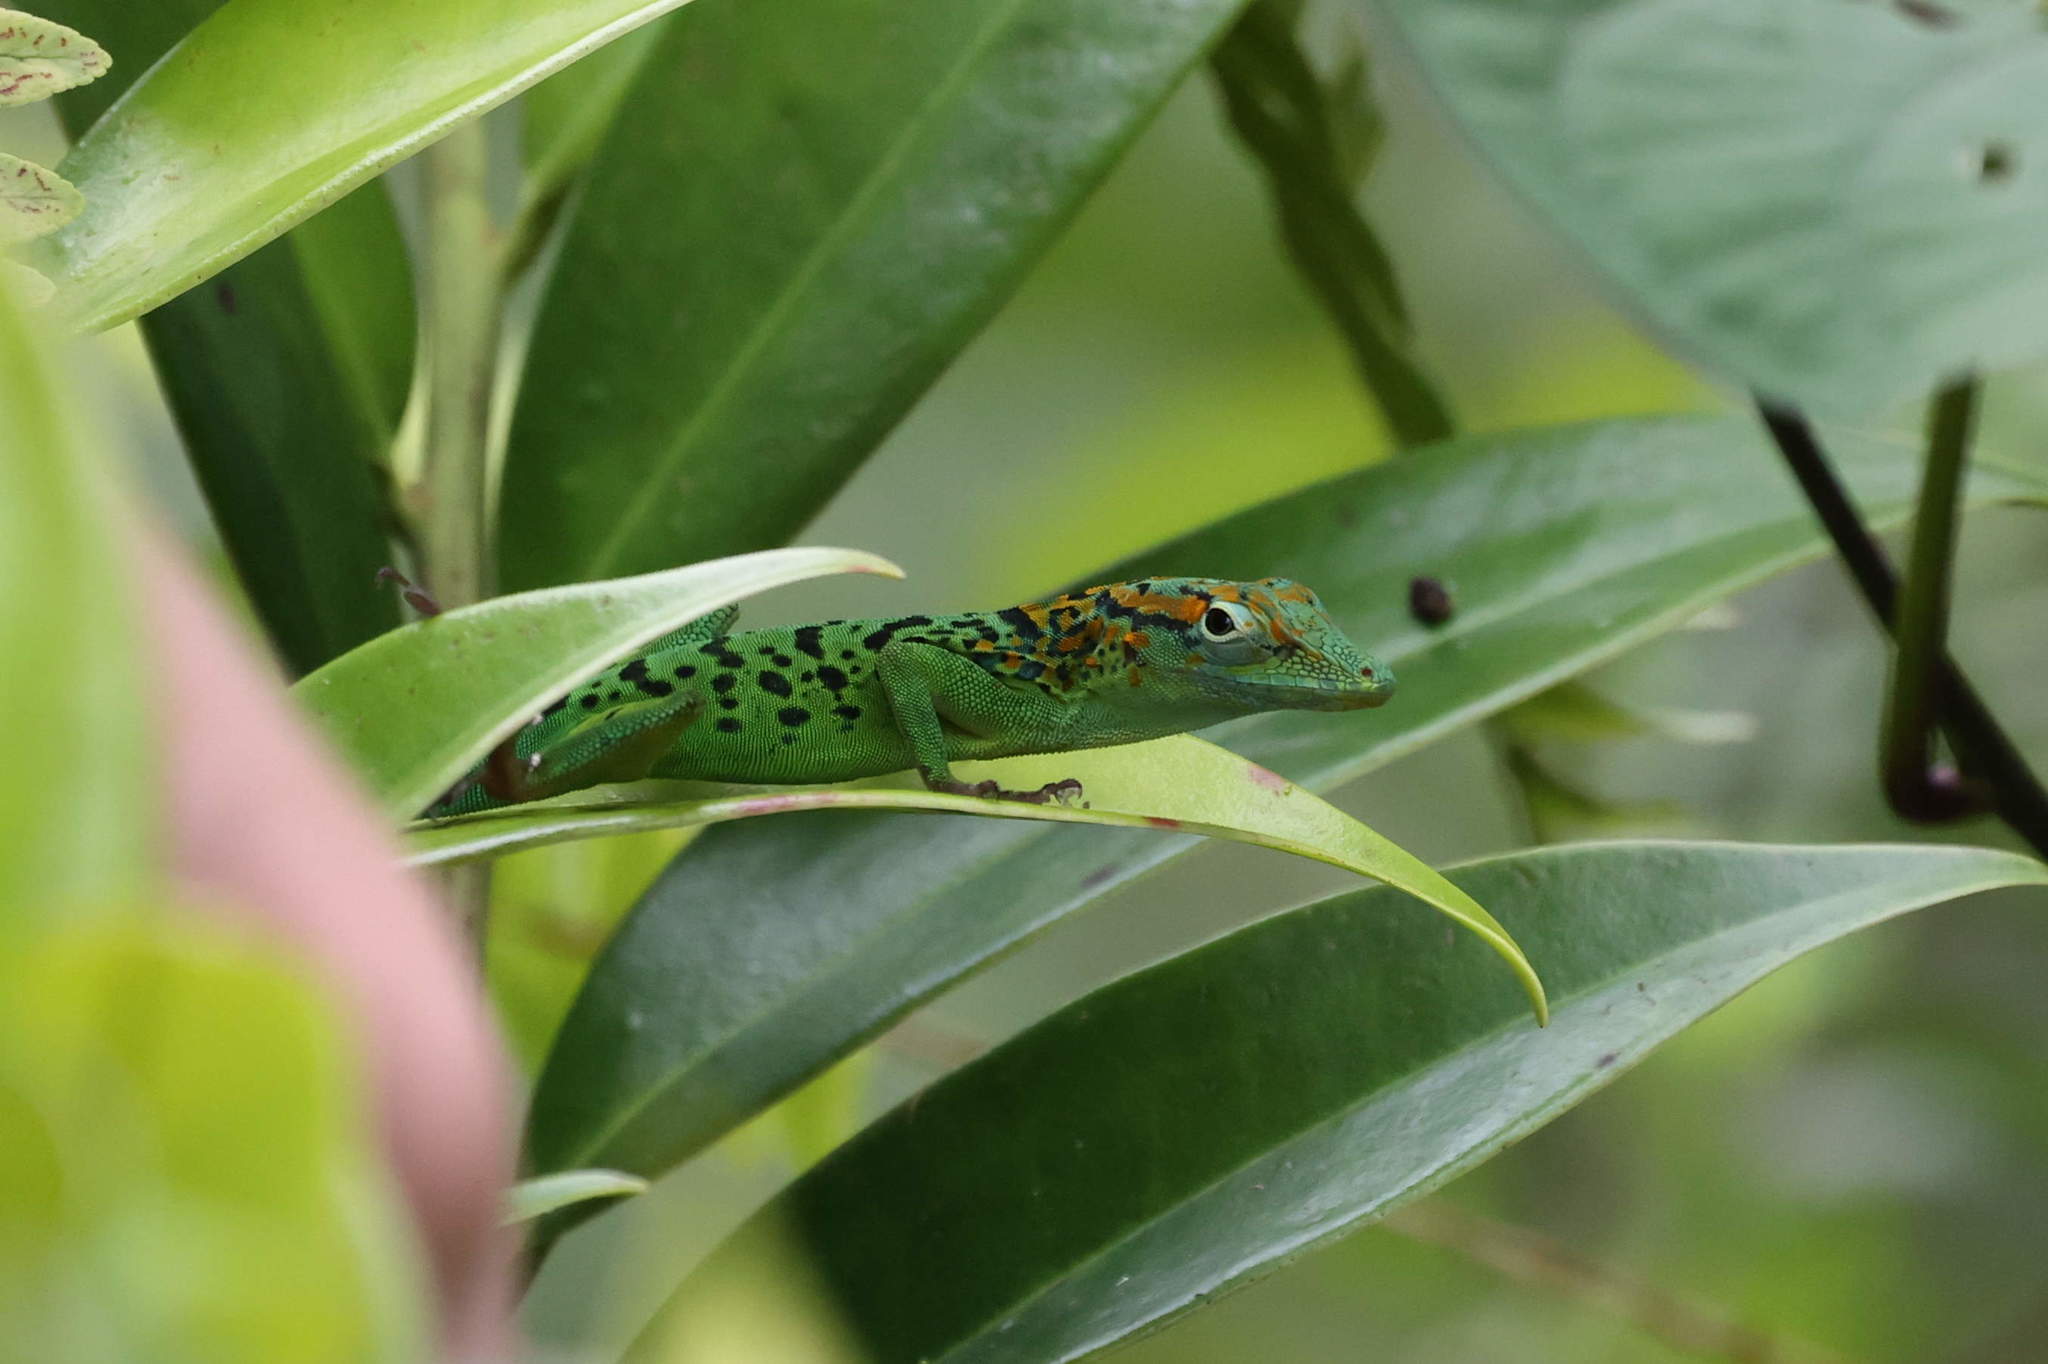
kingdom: Animalia
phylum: Chordata
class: Squamata
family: Dactyloidae
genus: Anolis
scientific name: Anolis marmoratus
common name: Guadeloupe anole
